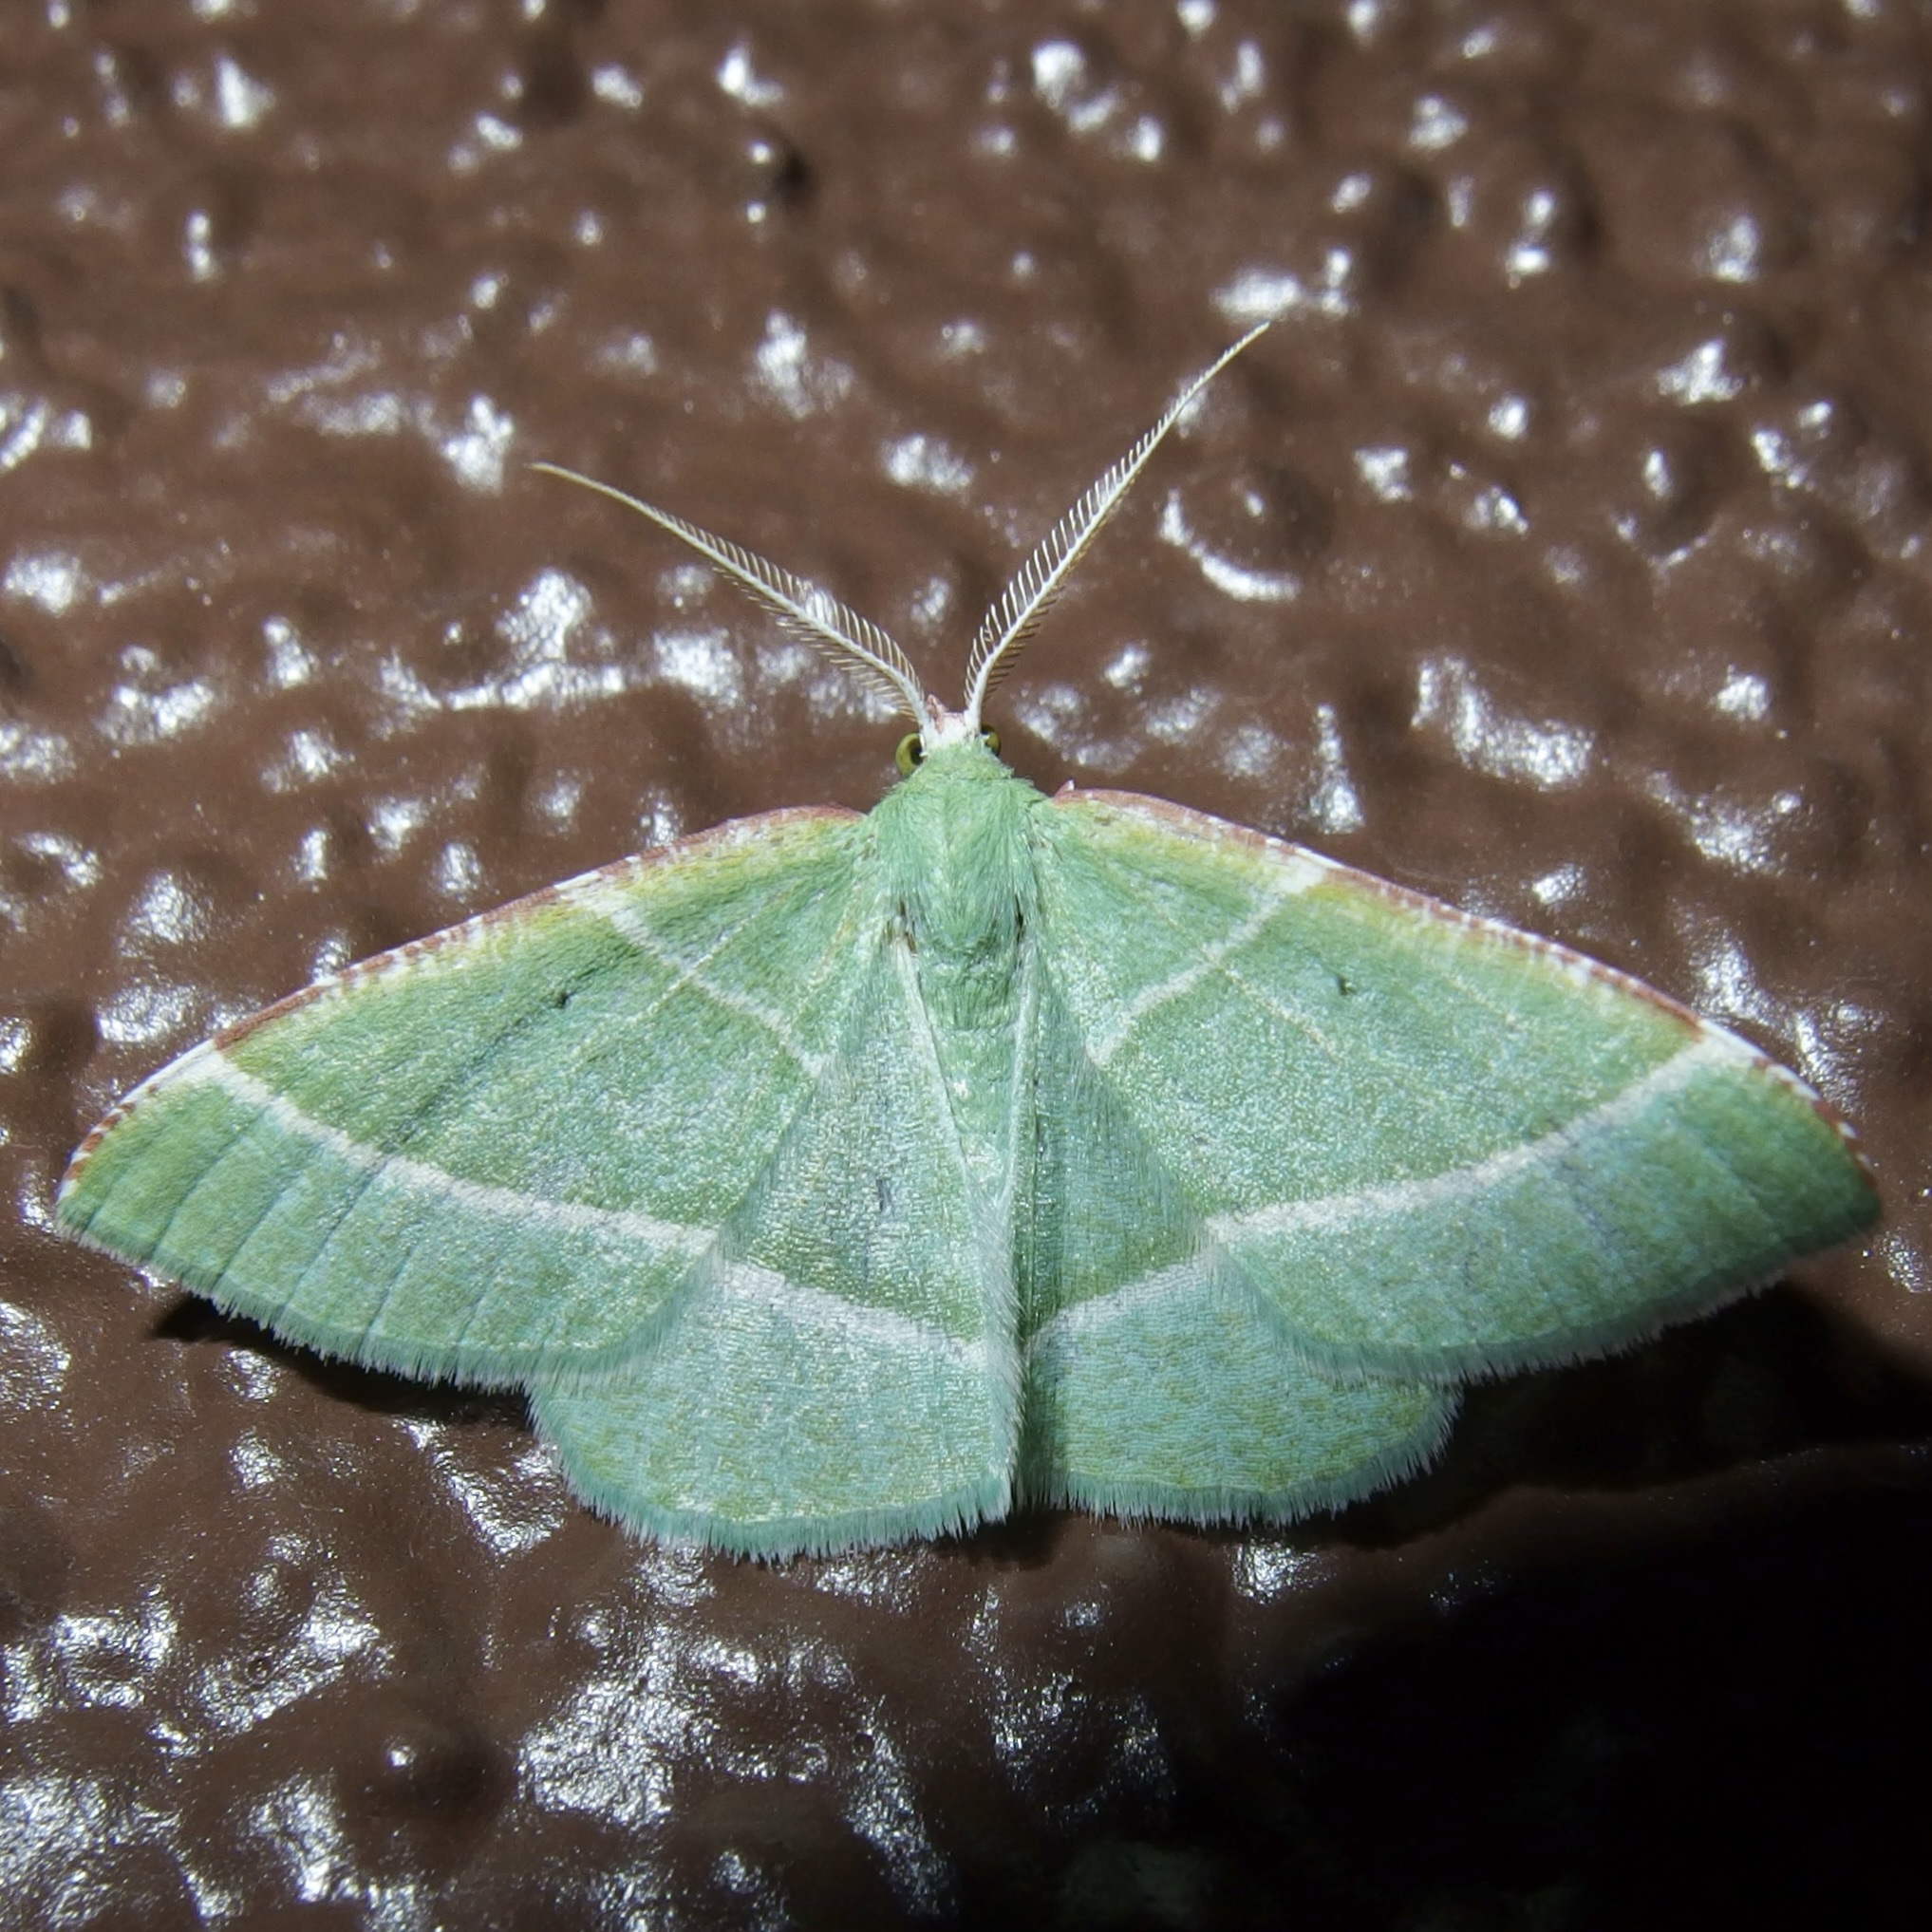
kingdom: Animalia
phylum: Arthropoda
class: Insecta
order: Lepidoptera
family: Geometridae
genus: Dichordophora
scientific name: Dichordophora phoenix
